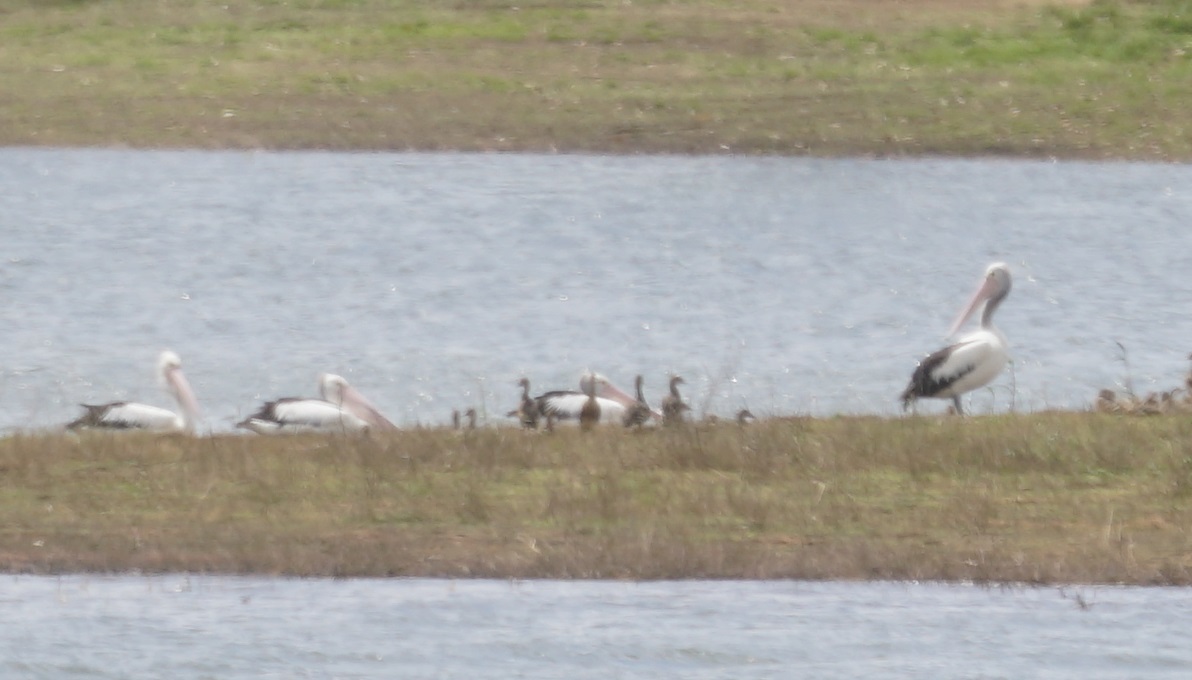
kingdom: Animalia
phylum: Chordata
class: Aves
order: Pelecaniformes
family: Pelecanidae
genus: Pelecanus
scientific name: Pelecanus conspicillatus
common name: Australian pelican
